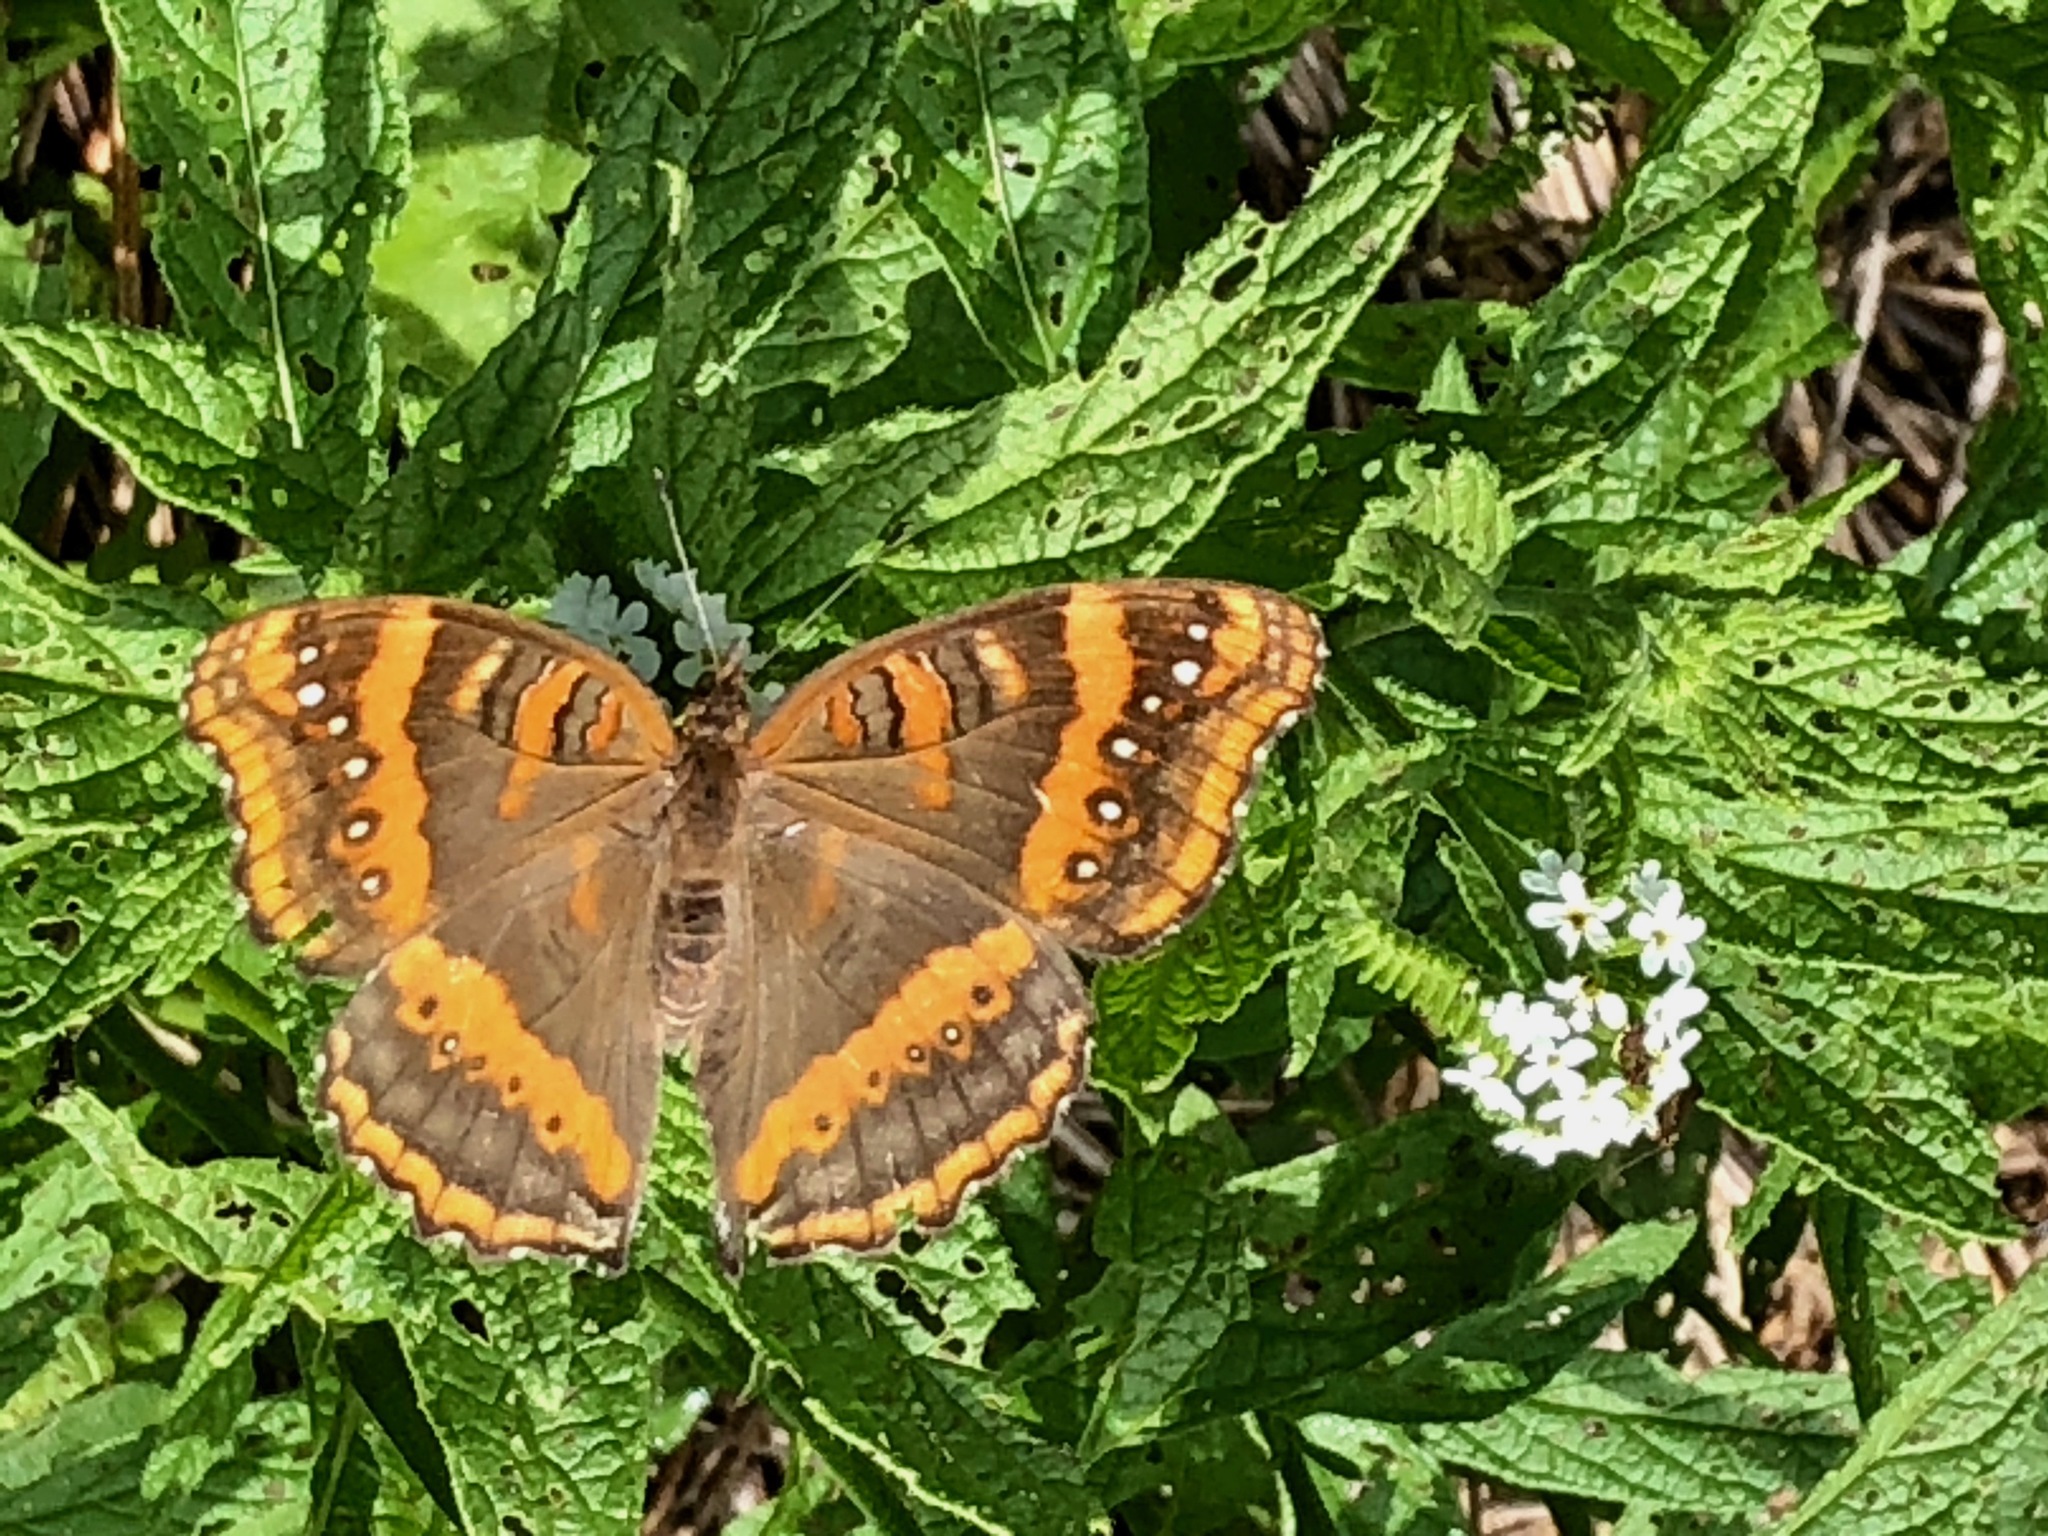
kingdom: Animalia
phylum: Arthropoda
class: Insecta
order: Lepidoptera
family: Nymphalidae
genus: Junonia
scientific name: Junonia limnoria
